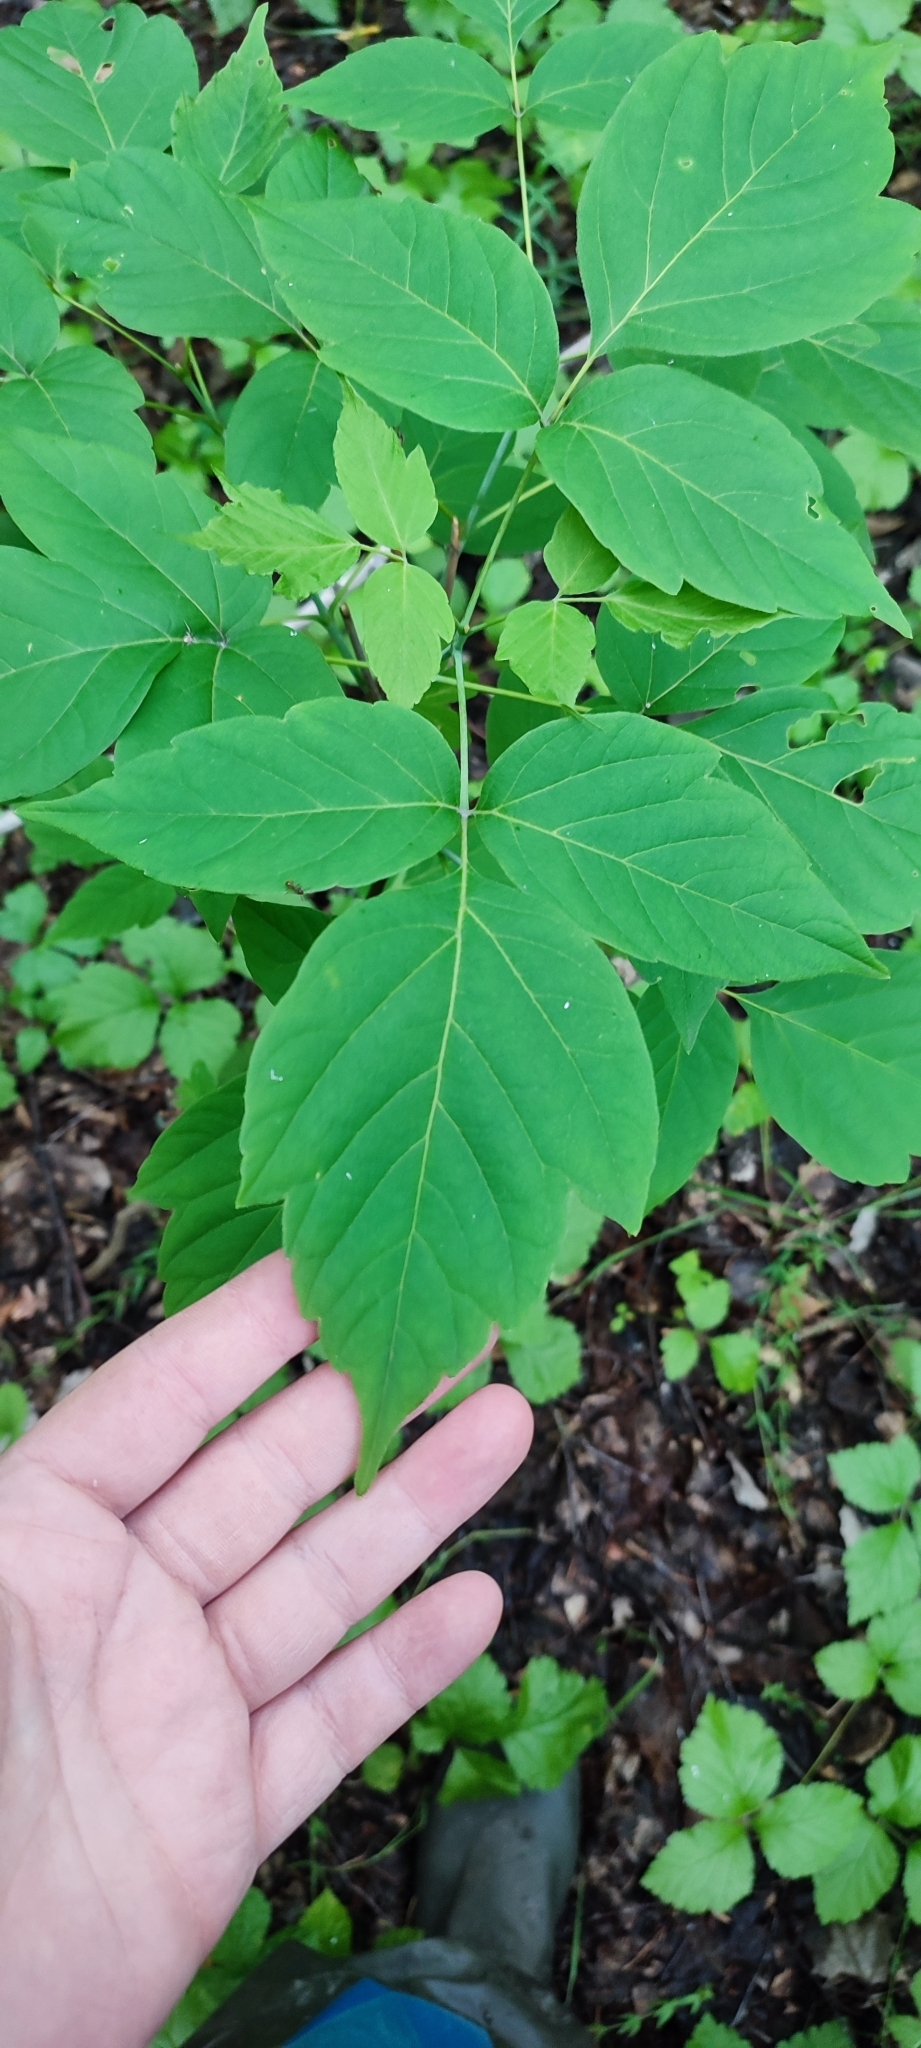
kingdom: Plantae
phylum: Tracheophyta
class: Magnoliopsida
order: Sapindales
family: Sapindaceae
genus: Acer
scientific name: Acer negundo
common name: Ashleaf maple
